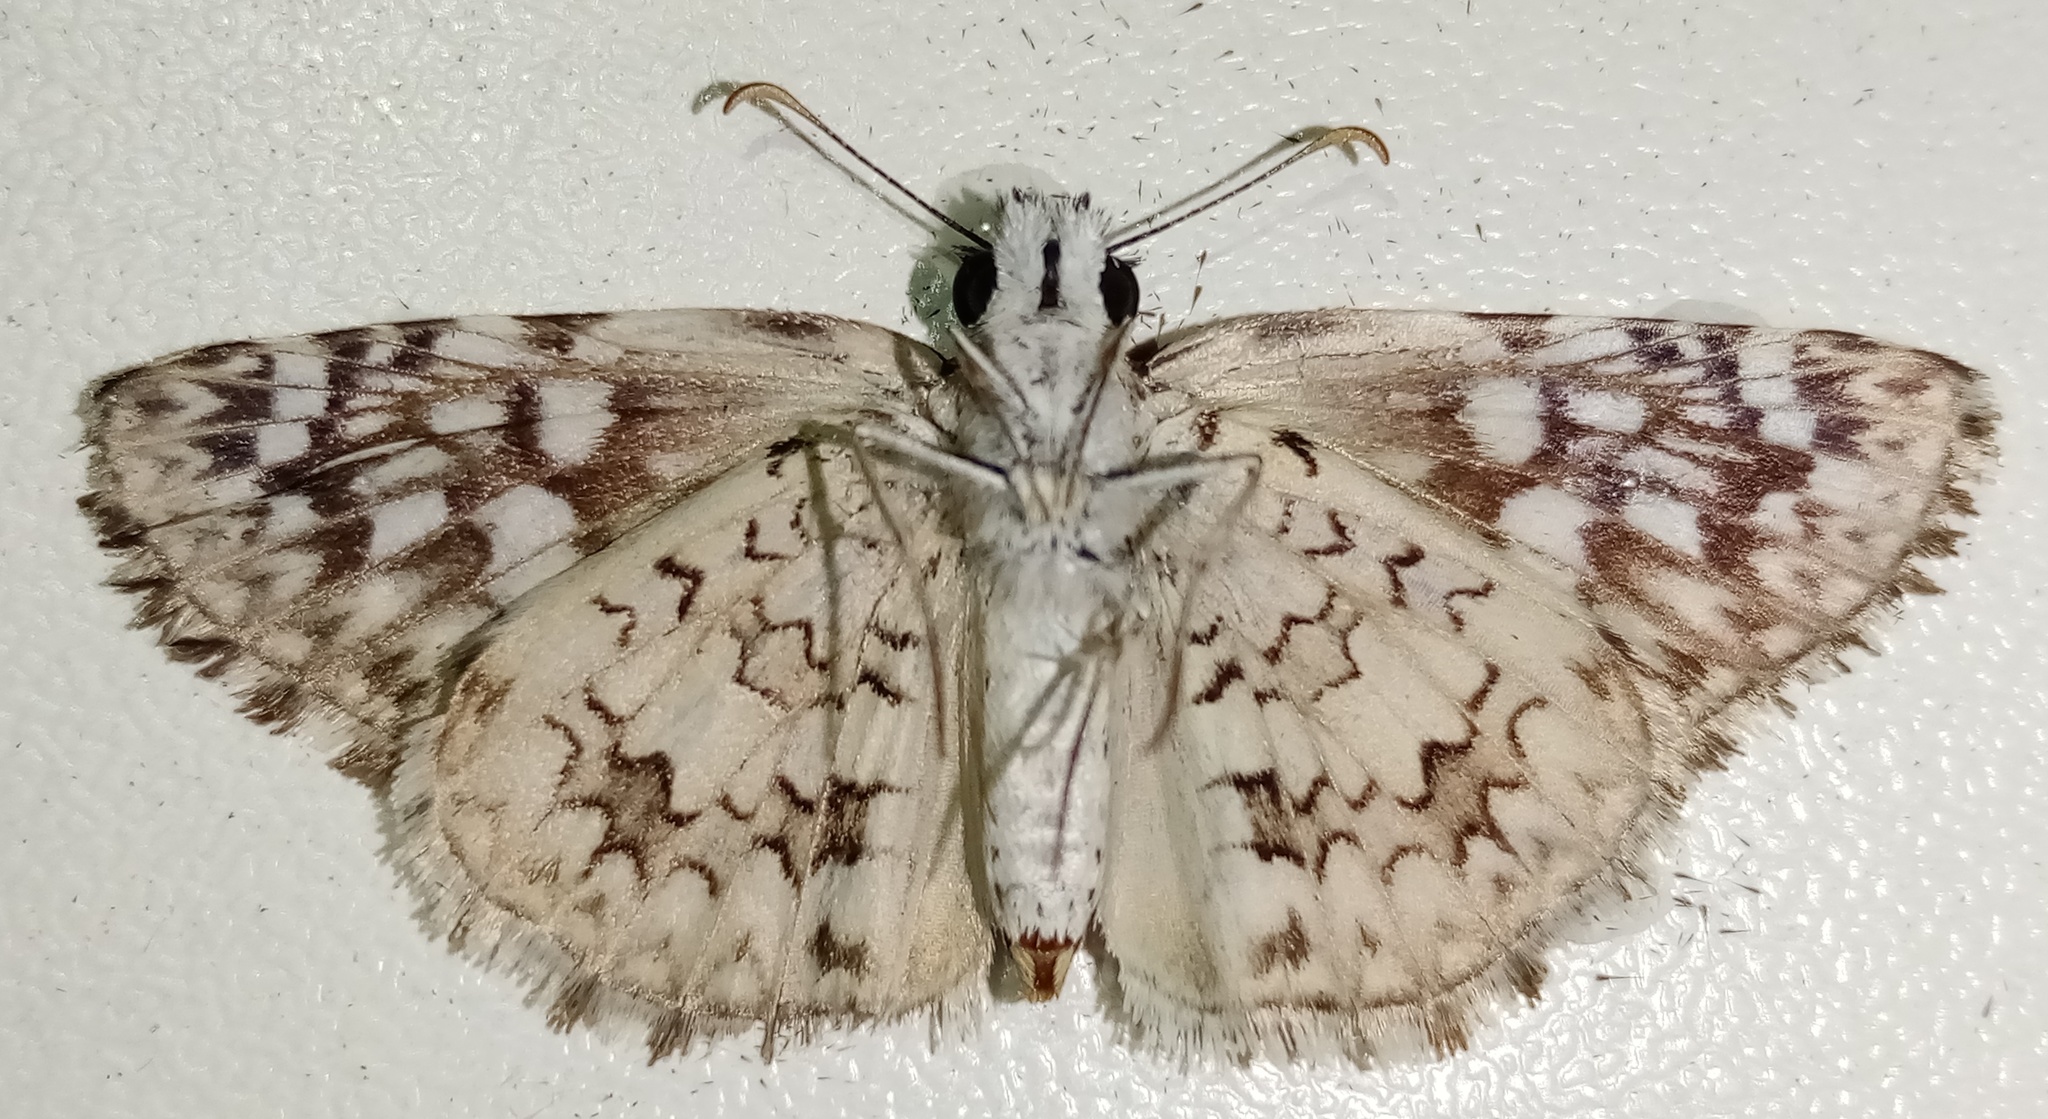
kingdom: Animalia
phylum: Arthropoda
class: Insecta
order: Lepidoptera
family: Hesperiidae
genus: Pyrgus
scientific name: Pyrgus oileus
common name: Tropical checkered-skipper
